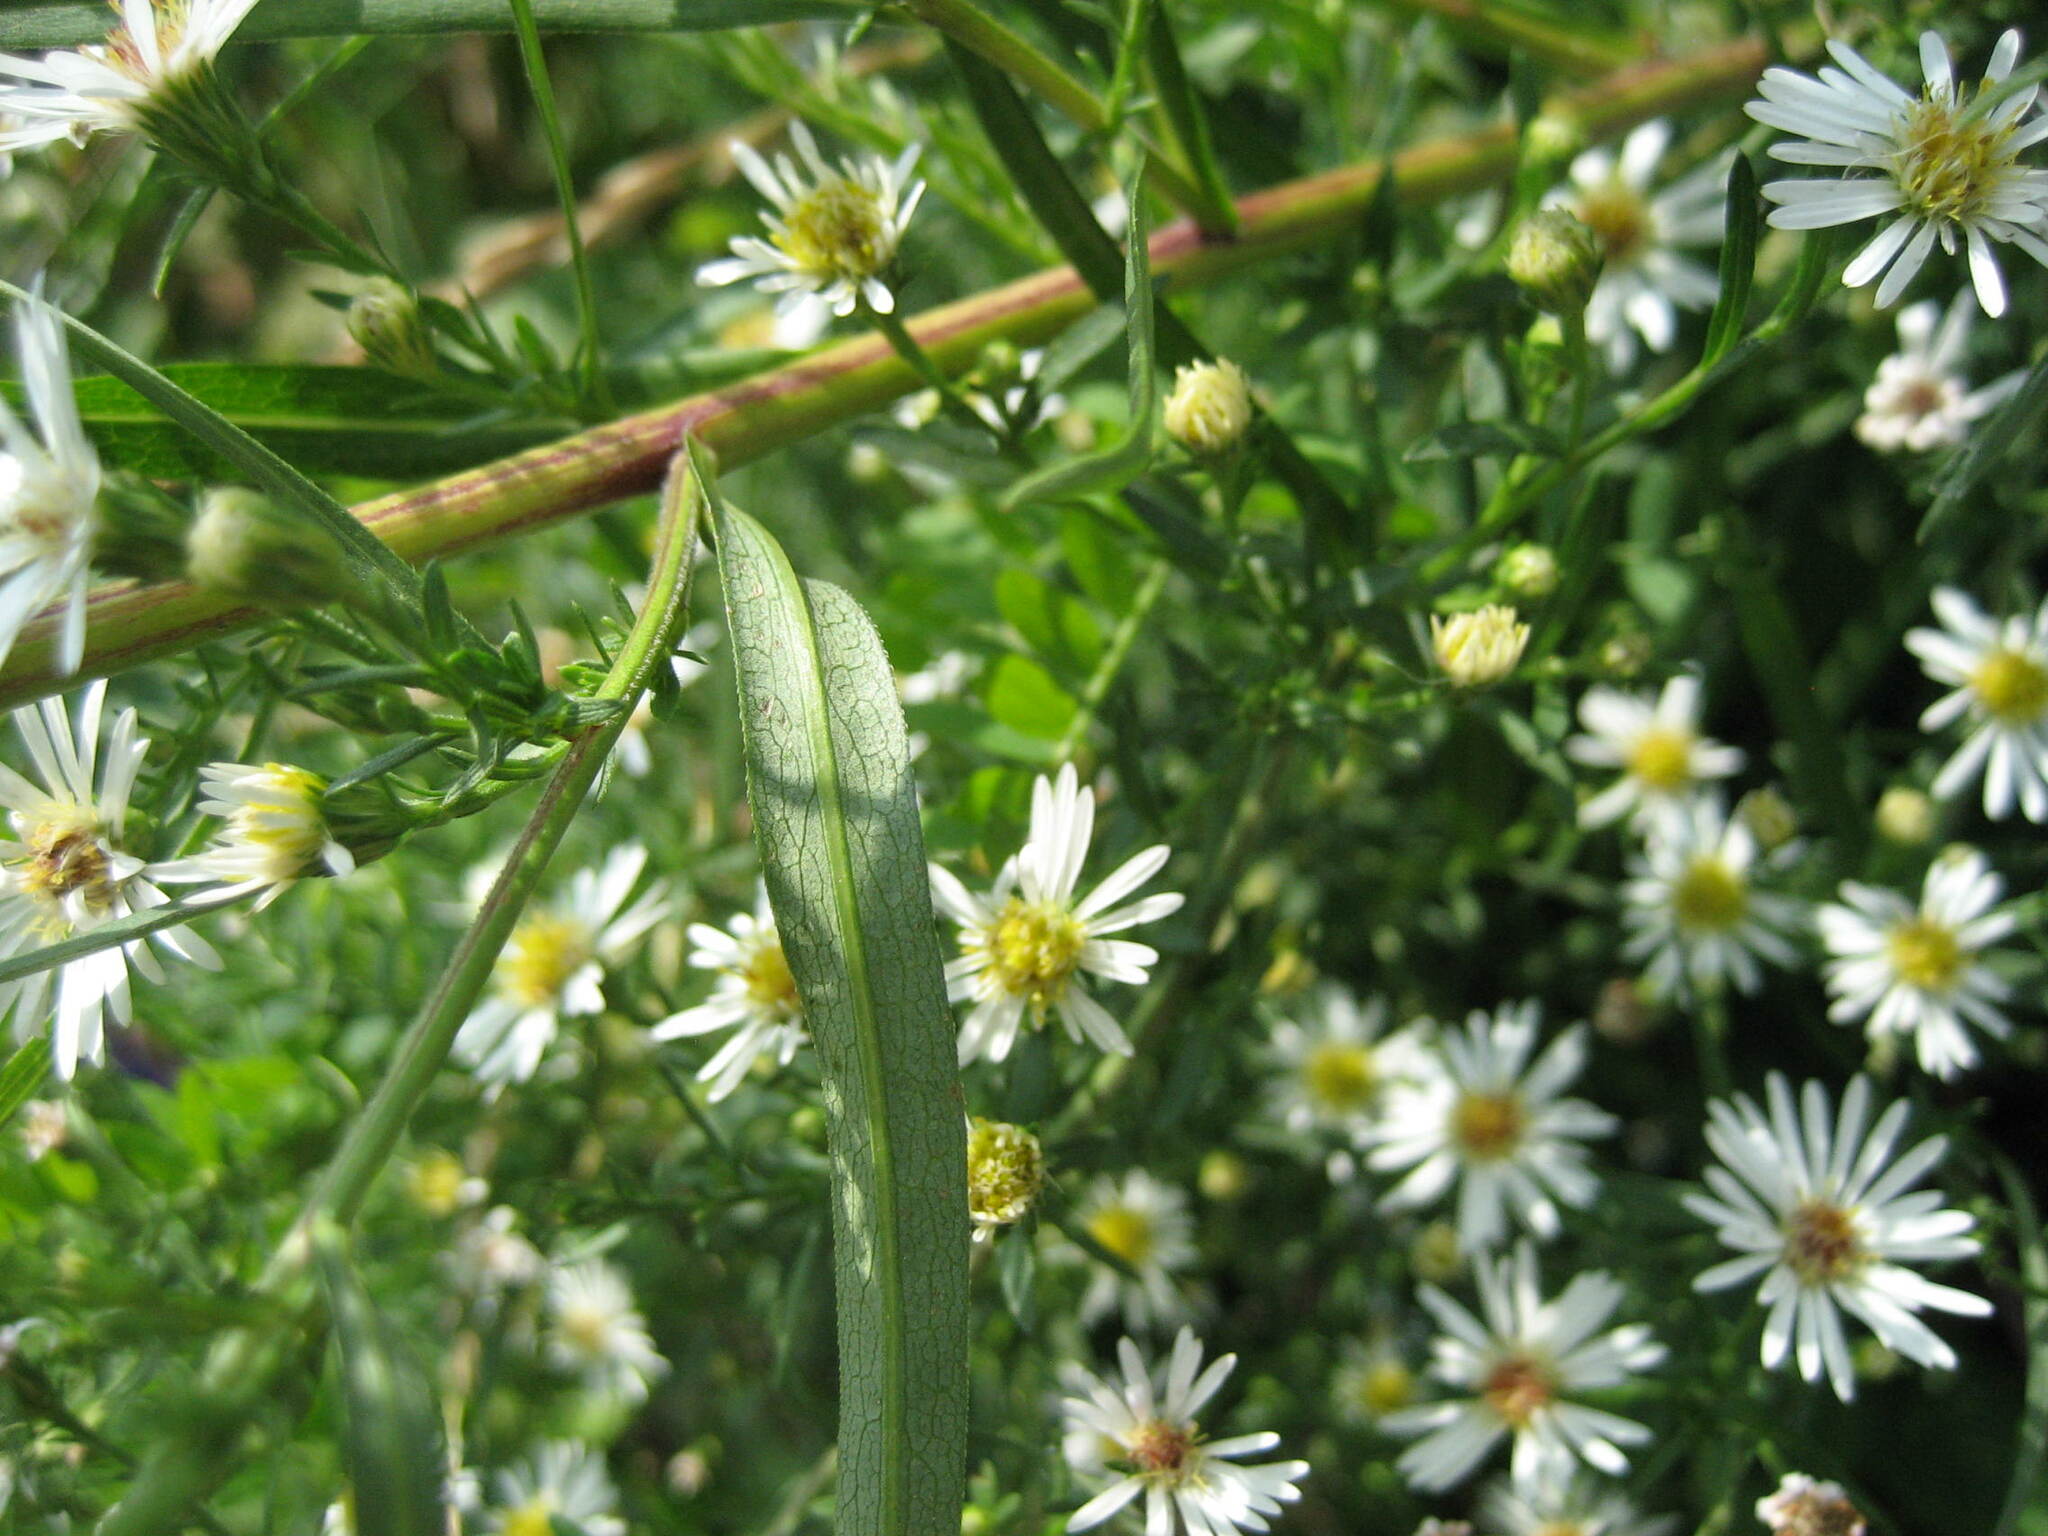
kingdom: Plantae
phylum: Tracheophyta
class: Magnoliopsida
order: Asterales
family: Asteraceae
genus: Symphyotrichum
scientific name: Symphyotrichum lanceolatum
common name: Panicled aster
